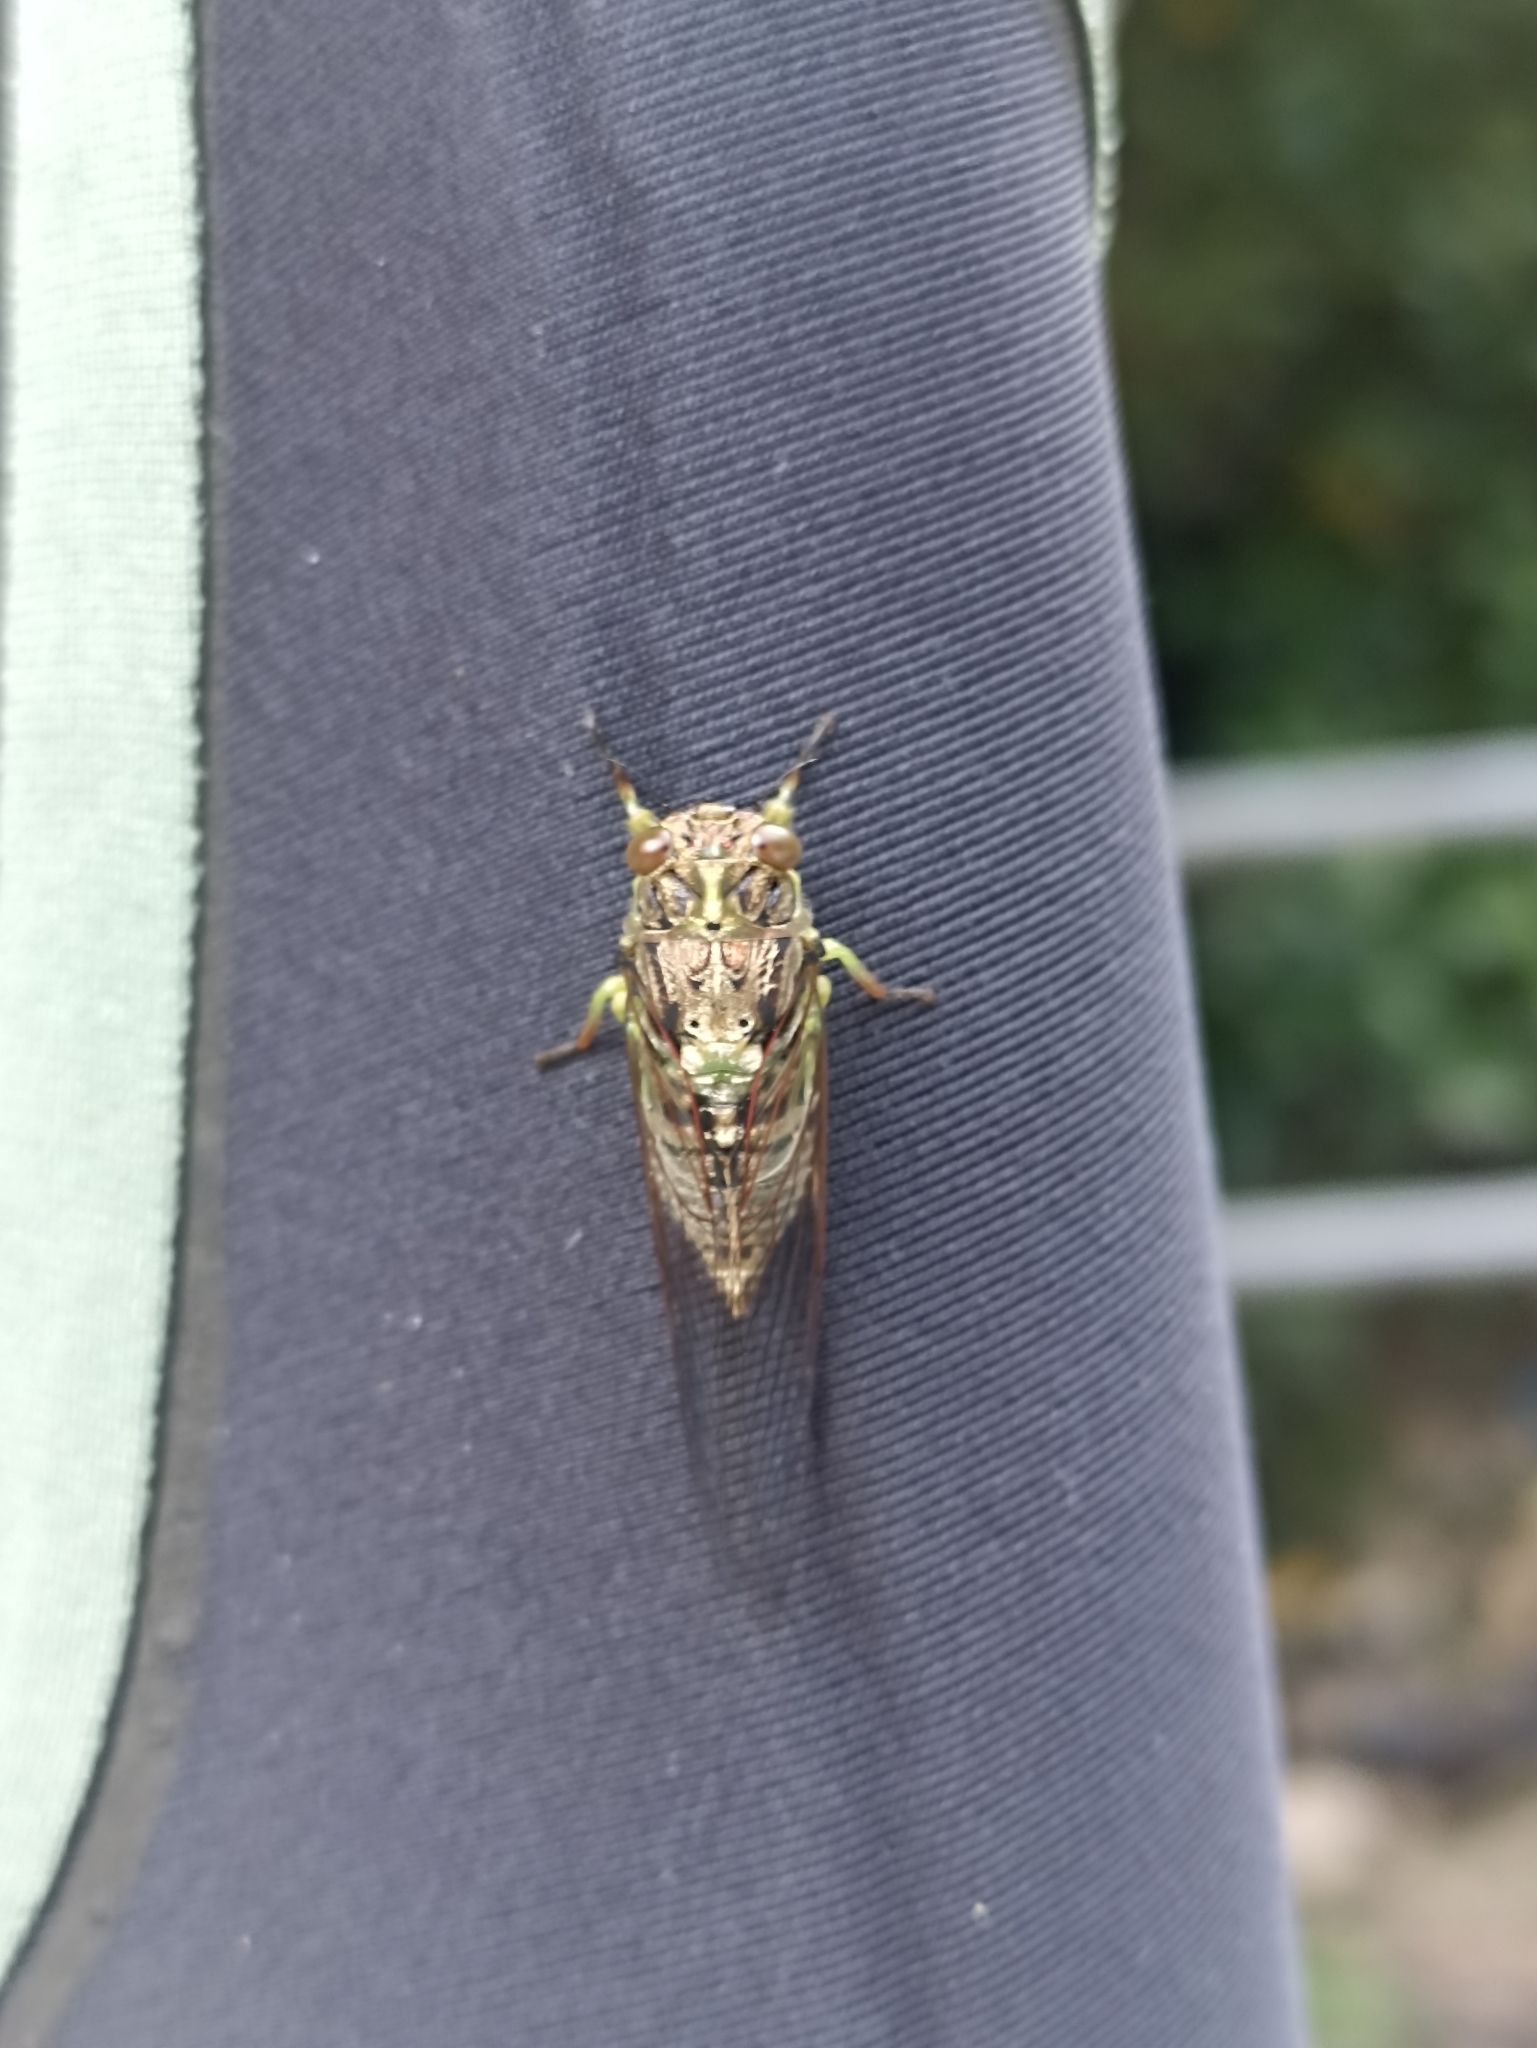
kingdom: Animalia
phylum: Arthropoda
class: Insecta
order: Hemiptera
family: Cicadidae
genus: Kikihia
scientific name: Kikihia scutellaris
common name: Lesser bronze cicada
